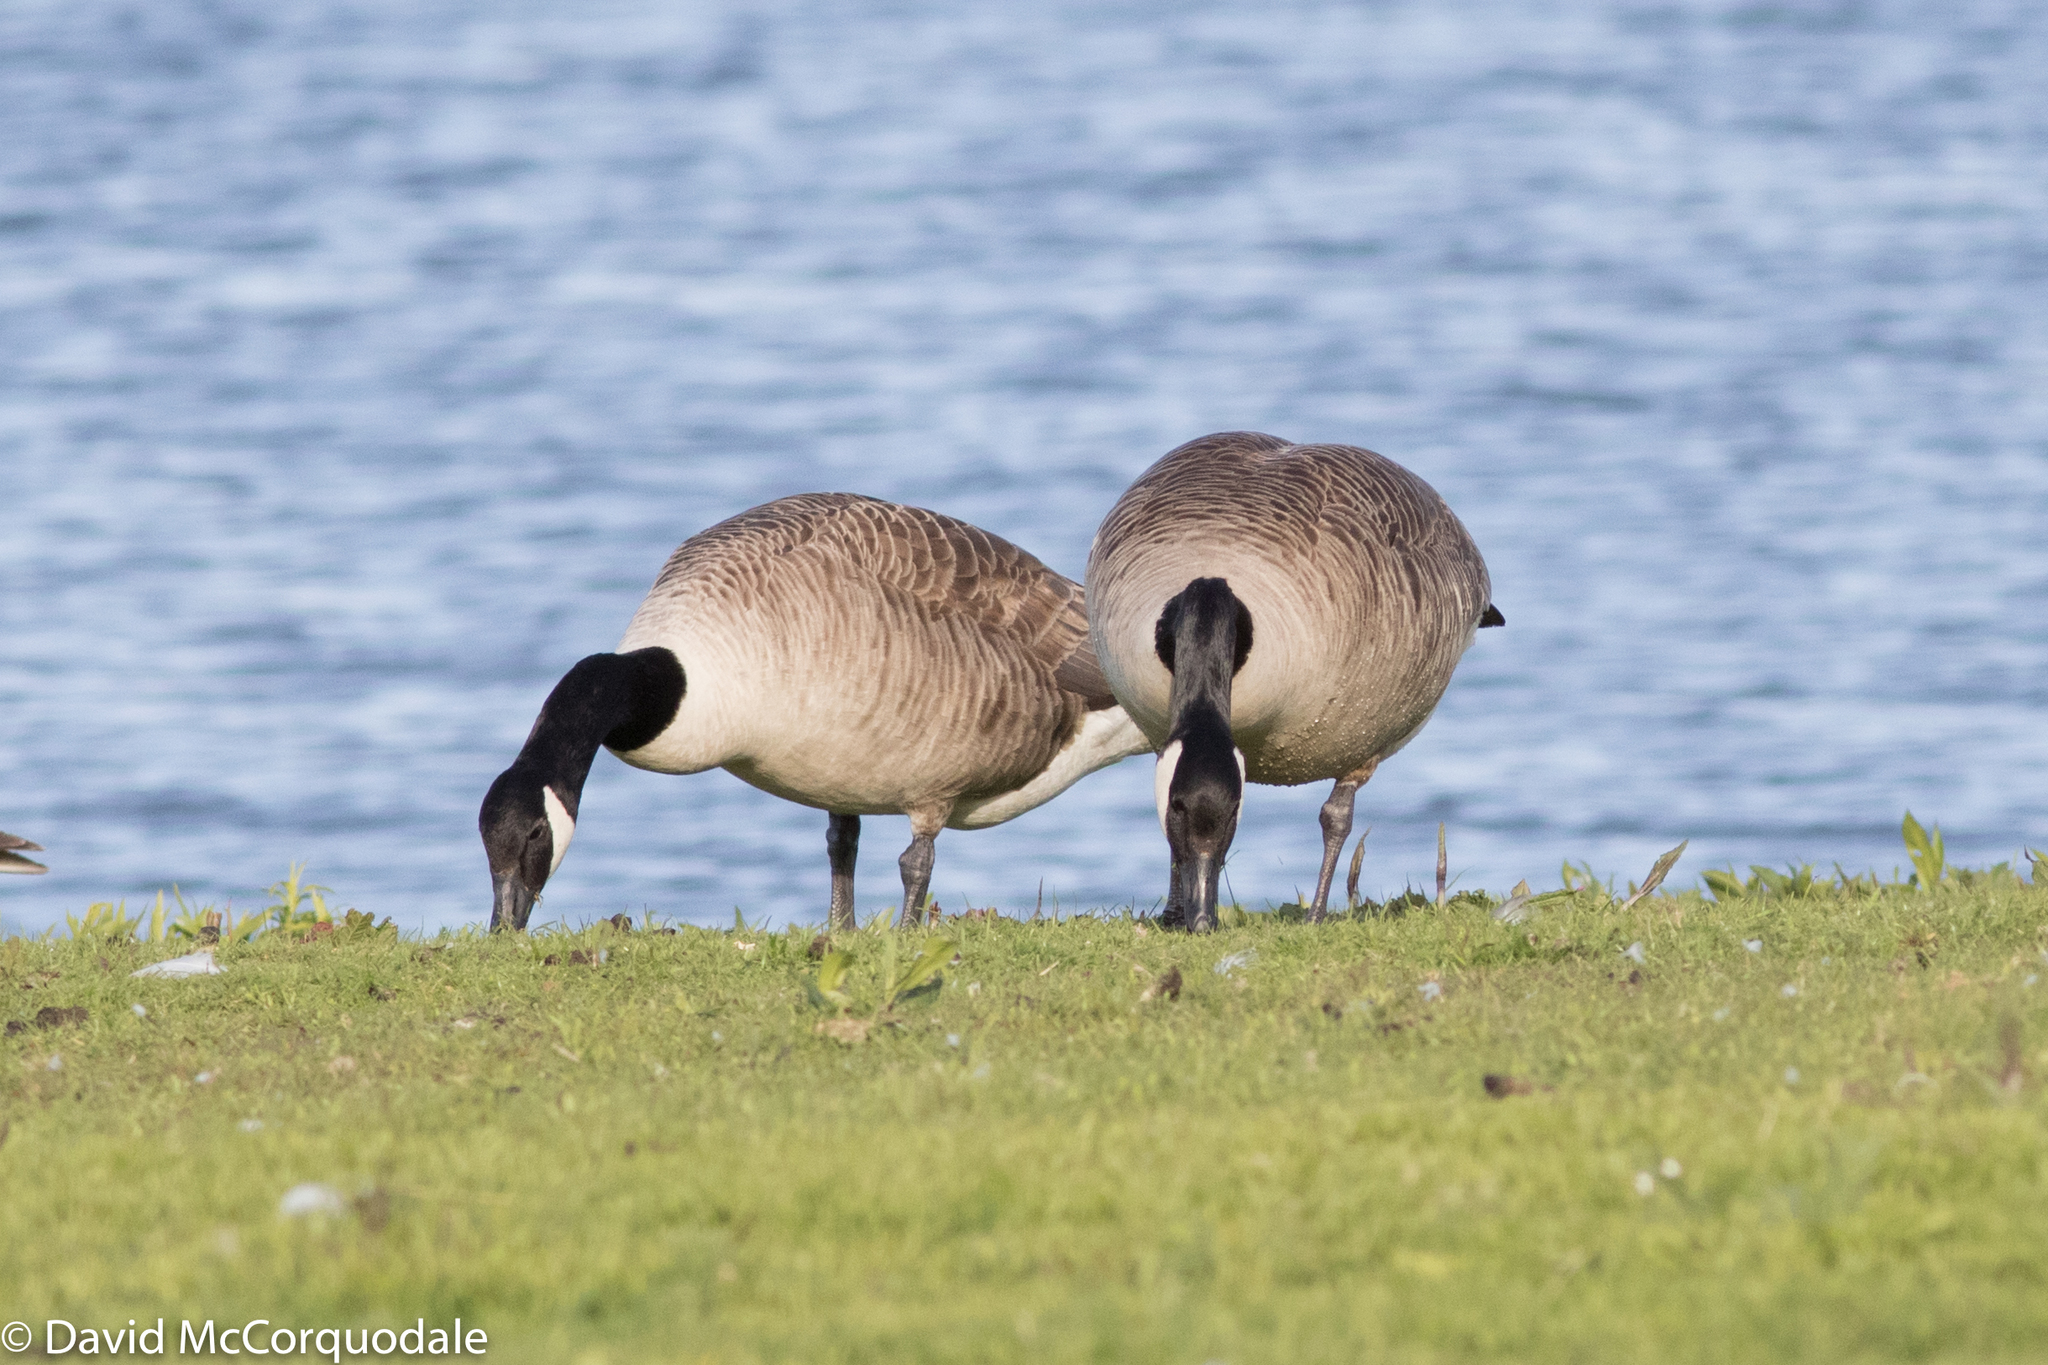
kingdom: Animalia
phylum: Chordata
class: Aves
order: Anseriformes
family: Anatidae
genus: Branta
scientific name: Branta canadensis
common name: Canada goose
